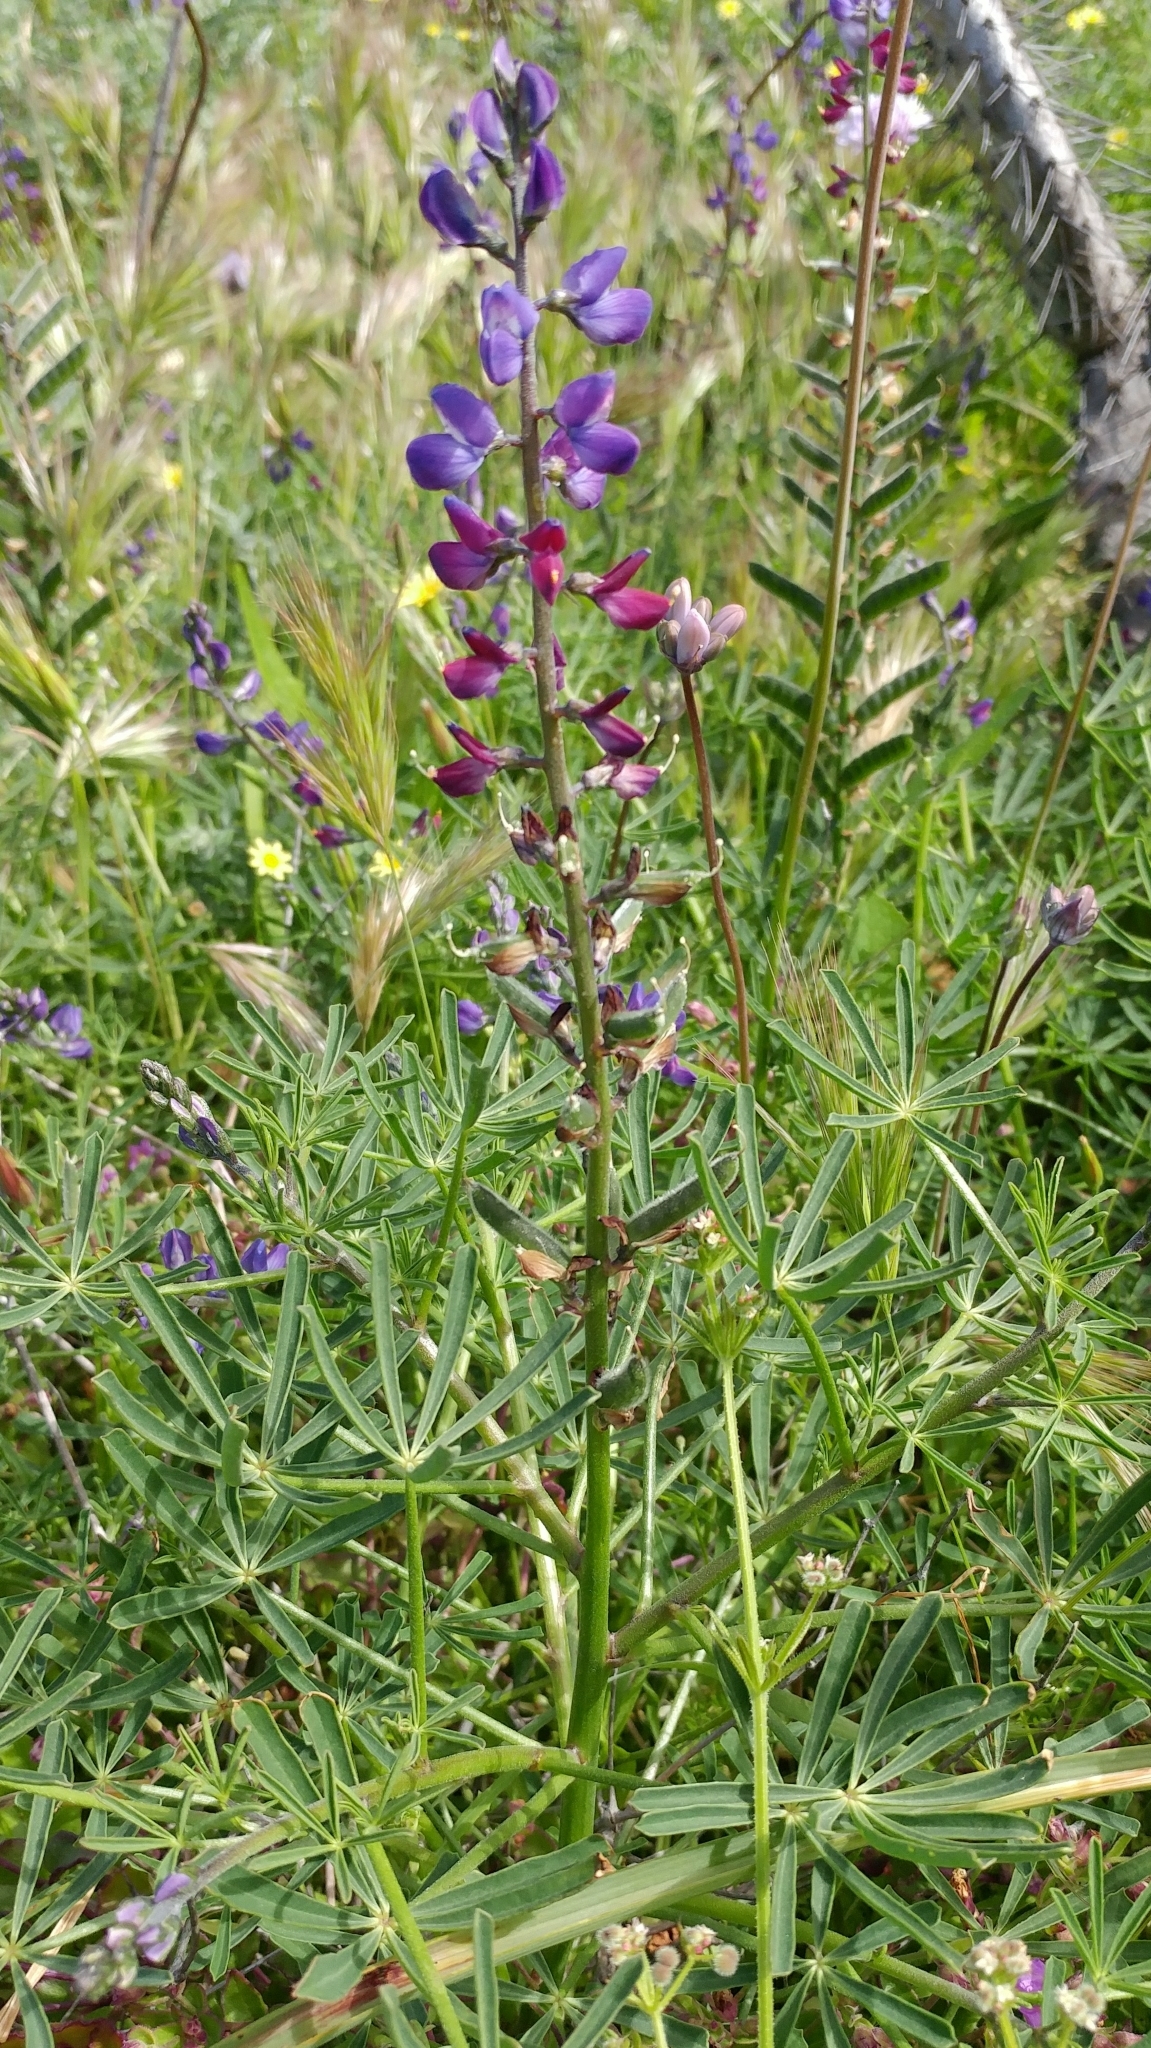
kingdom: Plantae
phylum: Tracheophyta
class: Magnoliopsida
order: Fabales
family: Fabaceae
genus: Lupinus
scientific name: Lupinus truncatus
